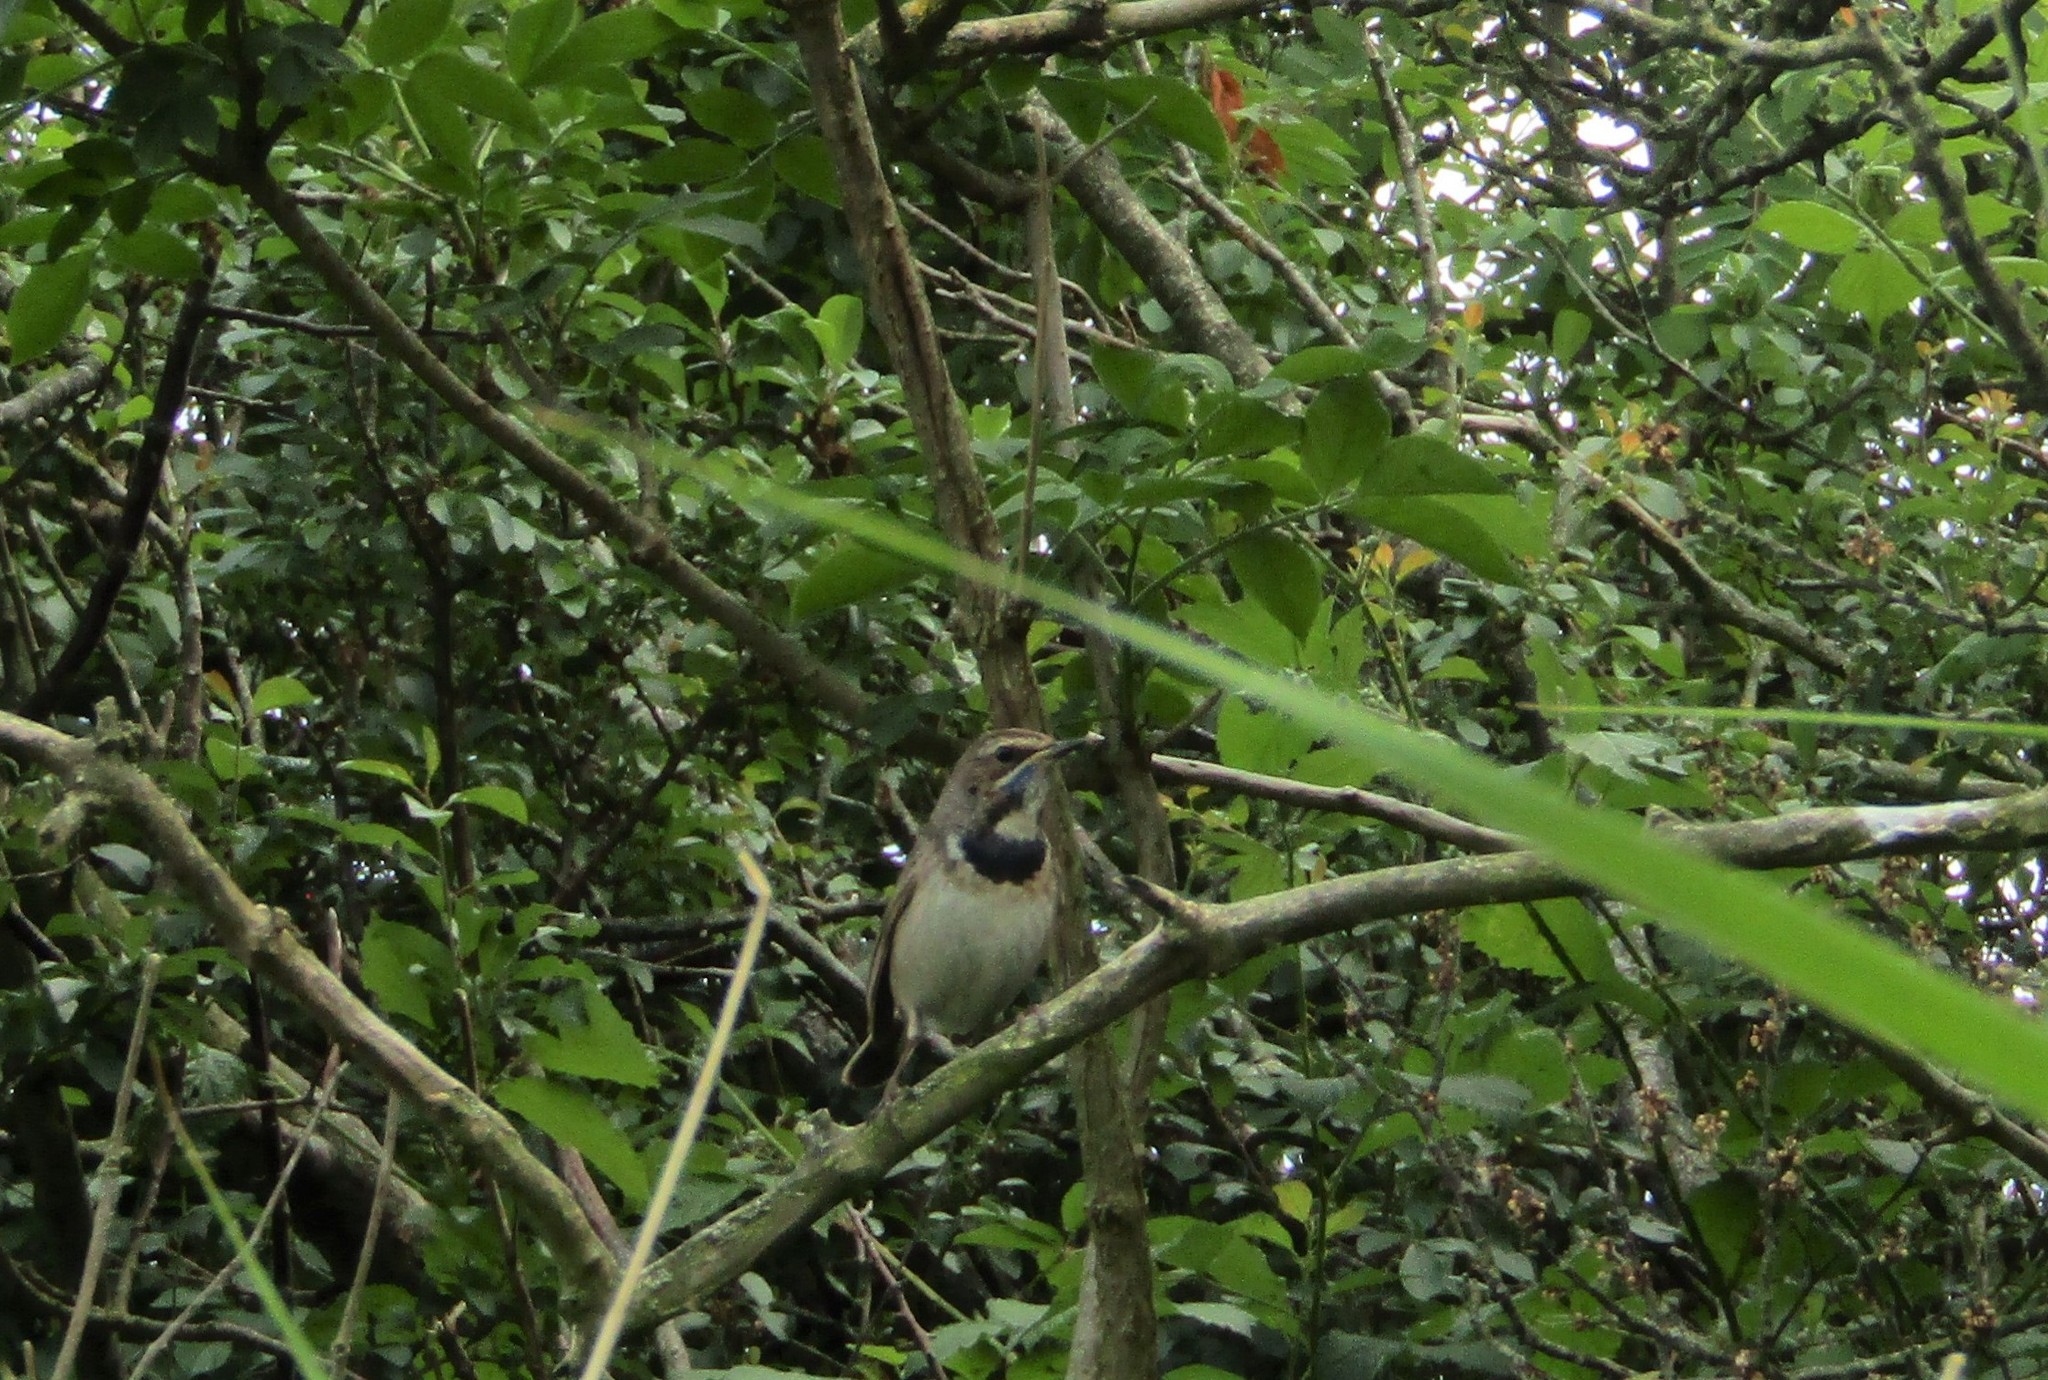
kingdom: Animalia
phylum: Chordata
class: Aves
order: Passeriformes
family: Muscicapidae
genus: Luscinia
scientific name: Luscinia svecica
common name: Bluethroat
